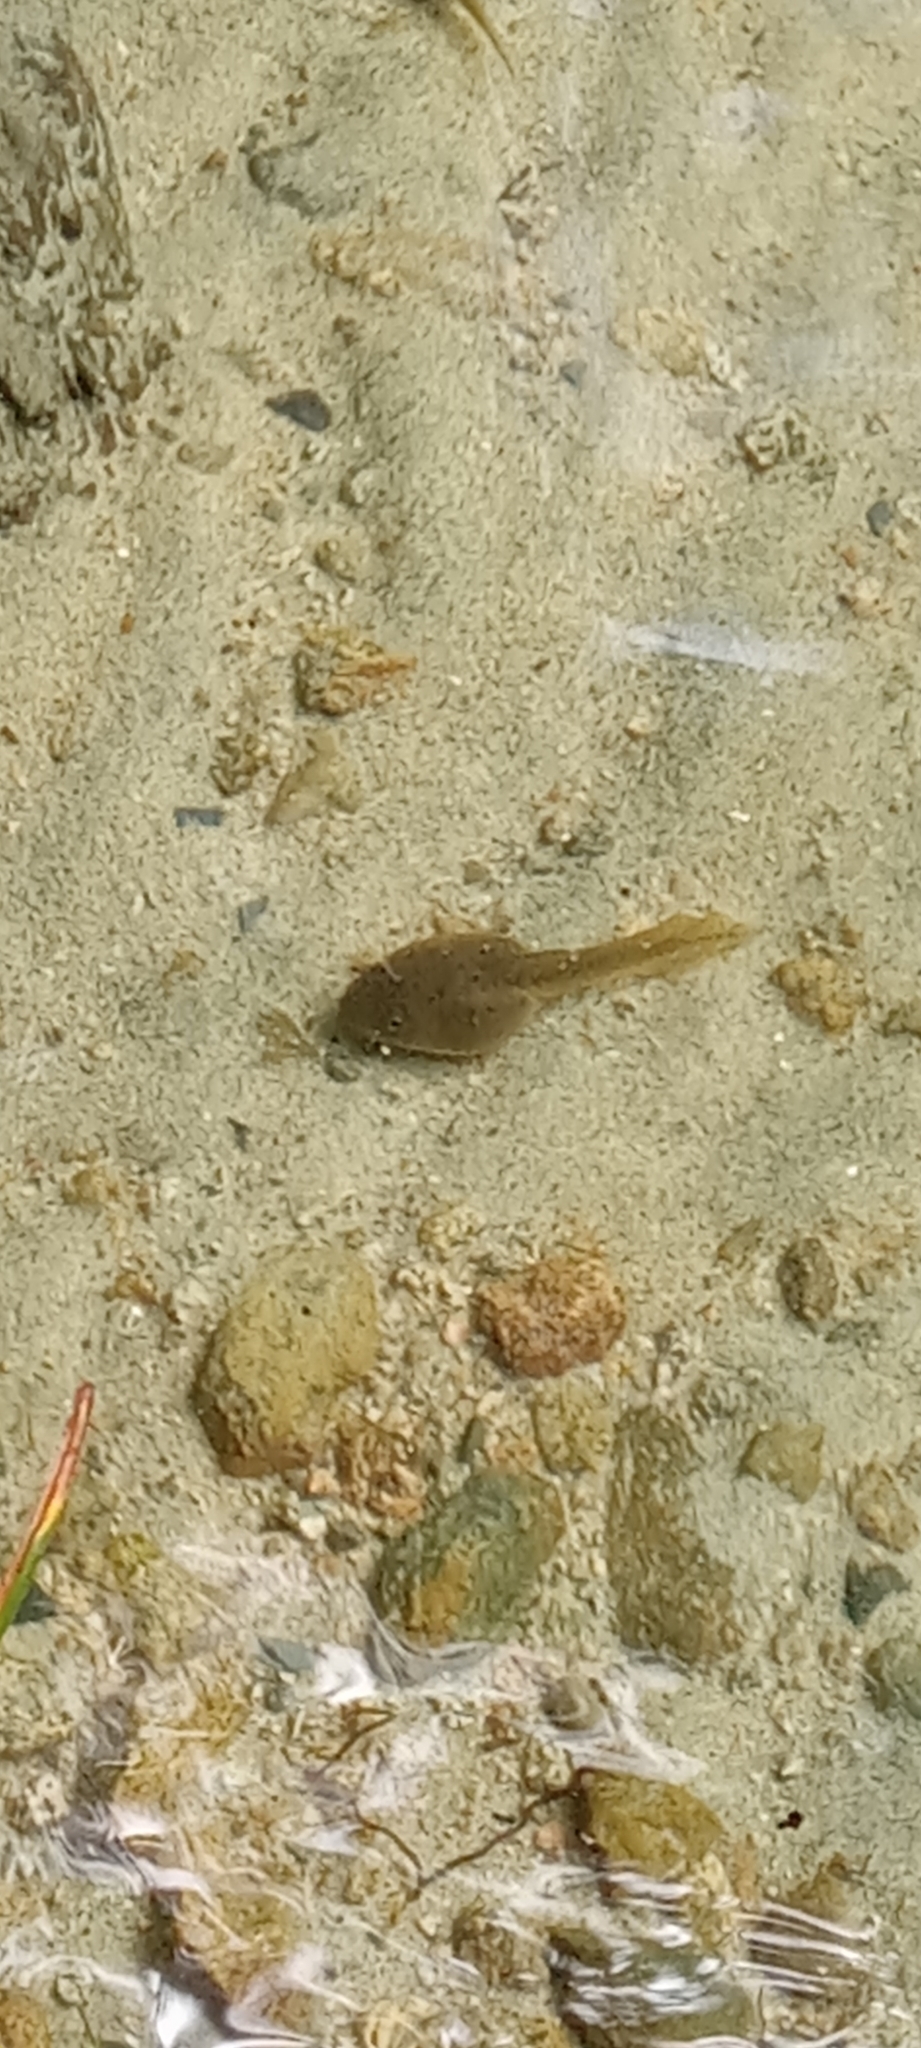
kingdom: Animalia
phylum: Chordata
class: Amphibia
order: Anura
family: Ranidae
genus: Lithobates
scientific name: Lithobates catesbeianus
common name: American bullfrog
